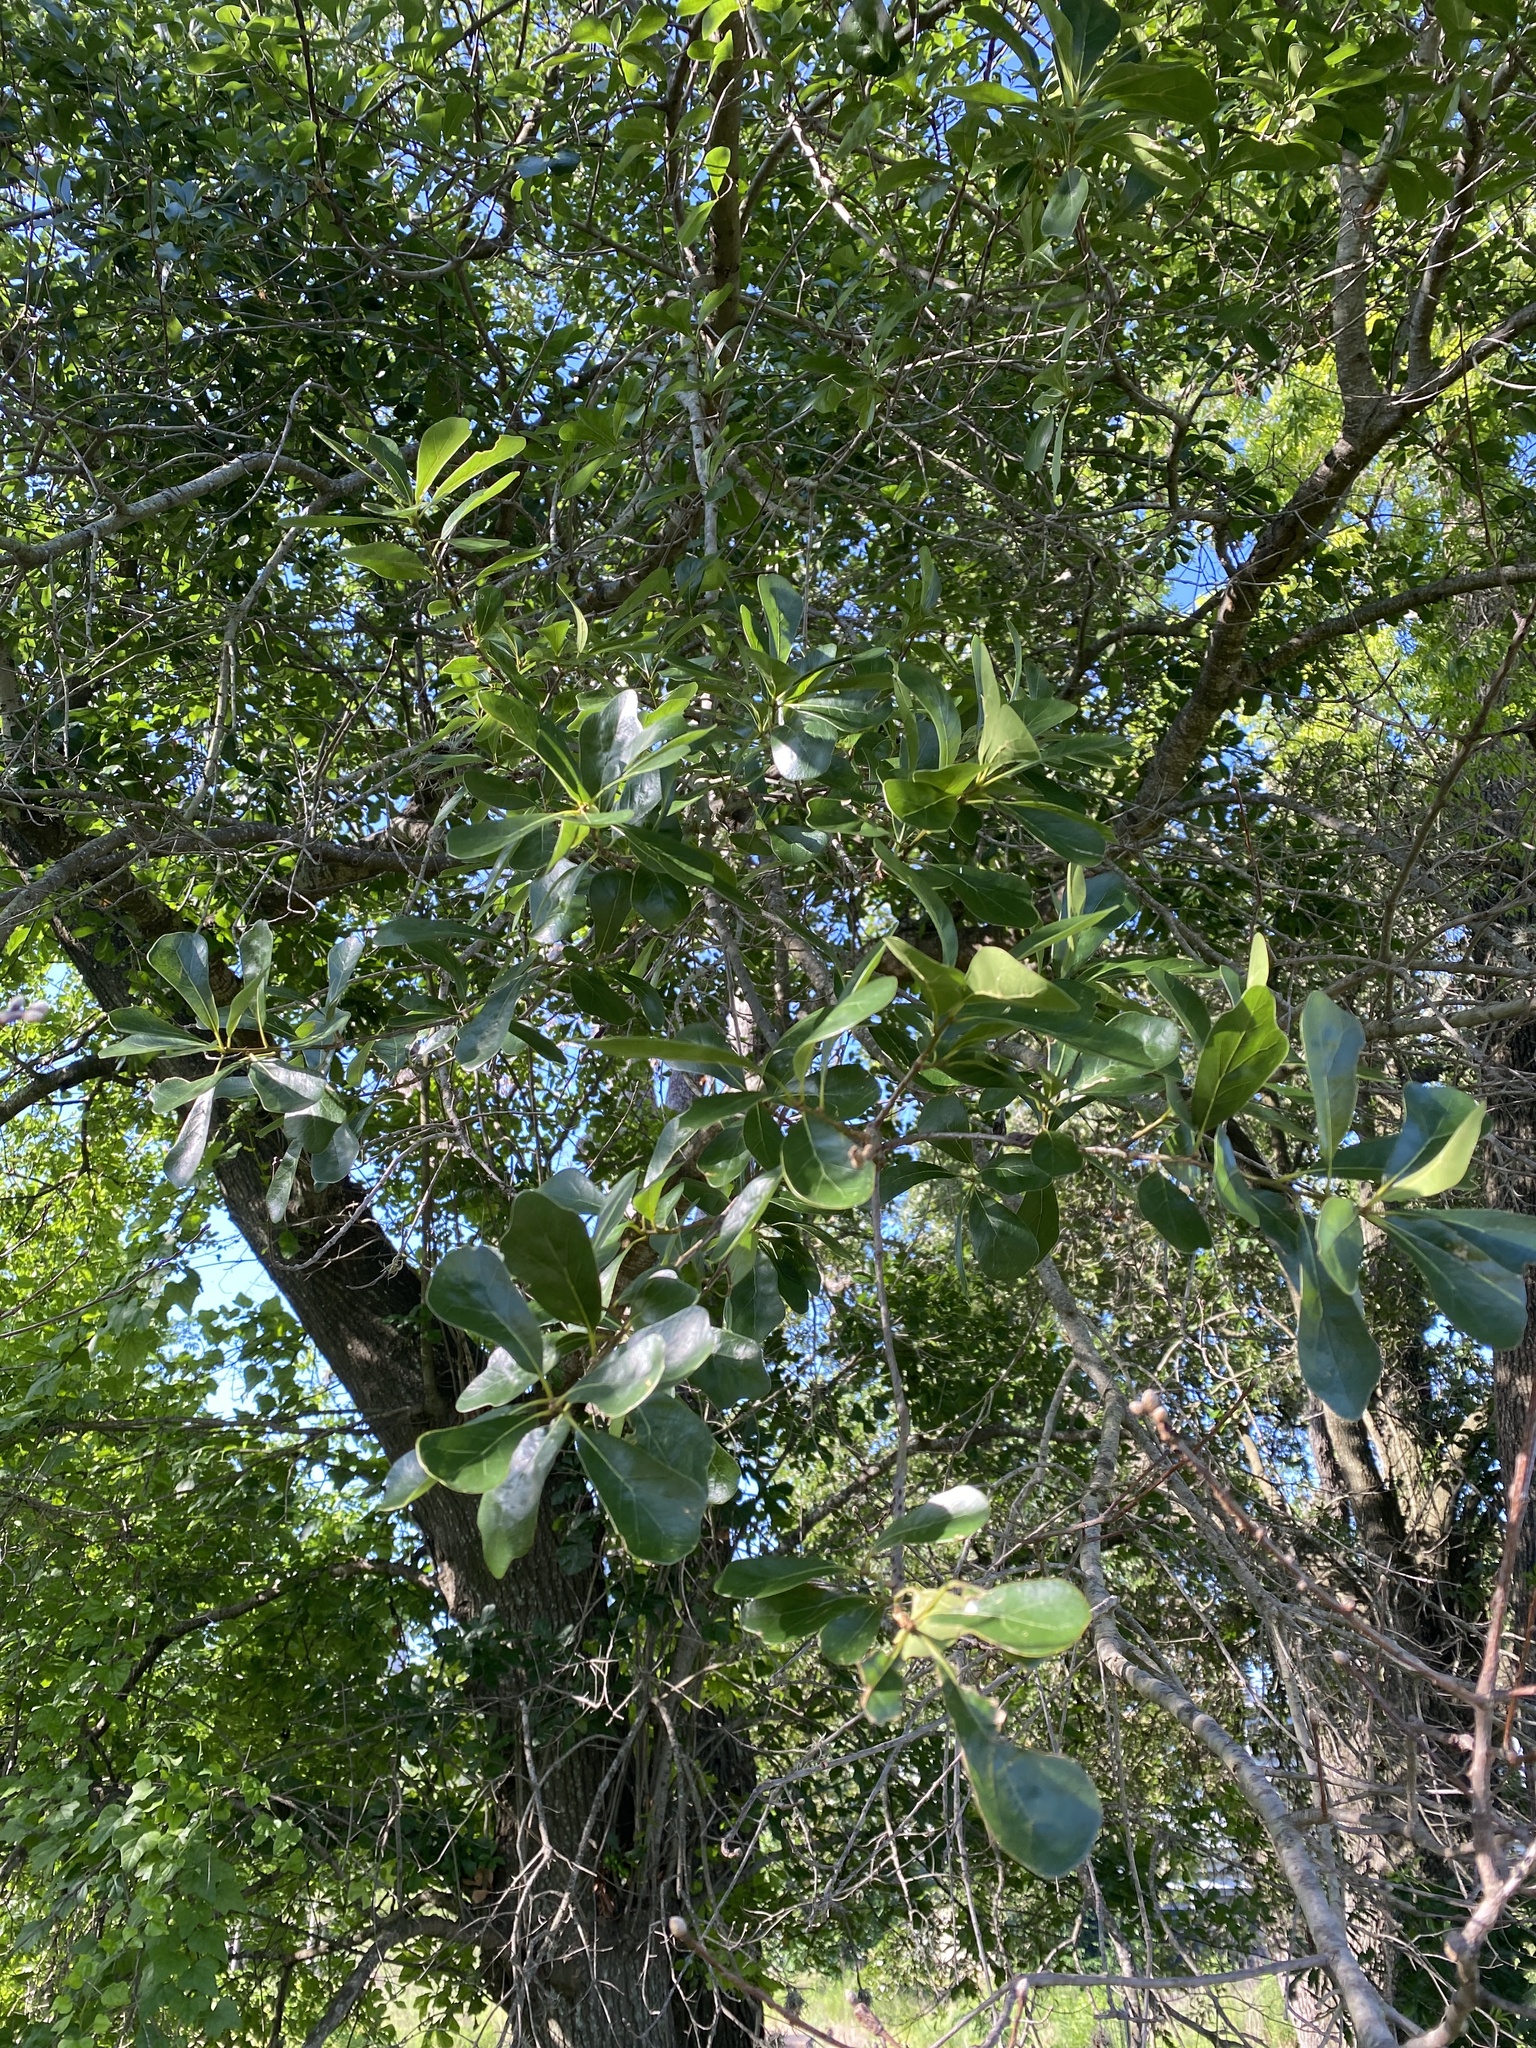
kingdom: Plantae
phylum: Tracheophyta
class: Magnoliopsida
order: Fagales
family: Fagaceae
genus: Quercus
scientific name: Quercus nigra
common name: Water oak
